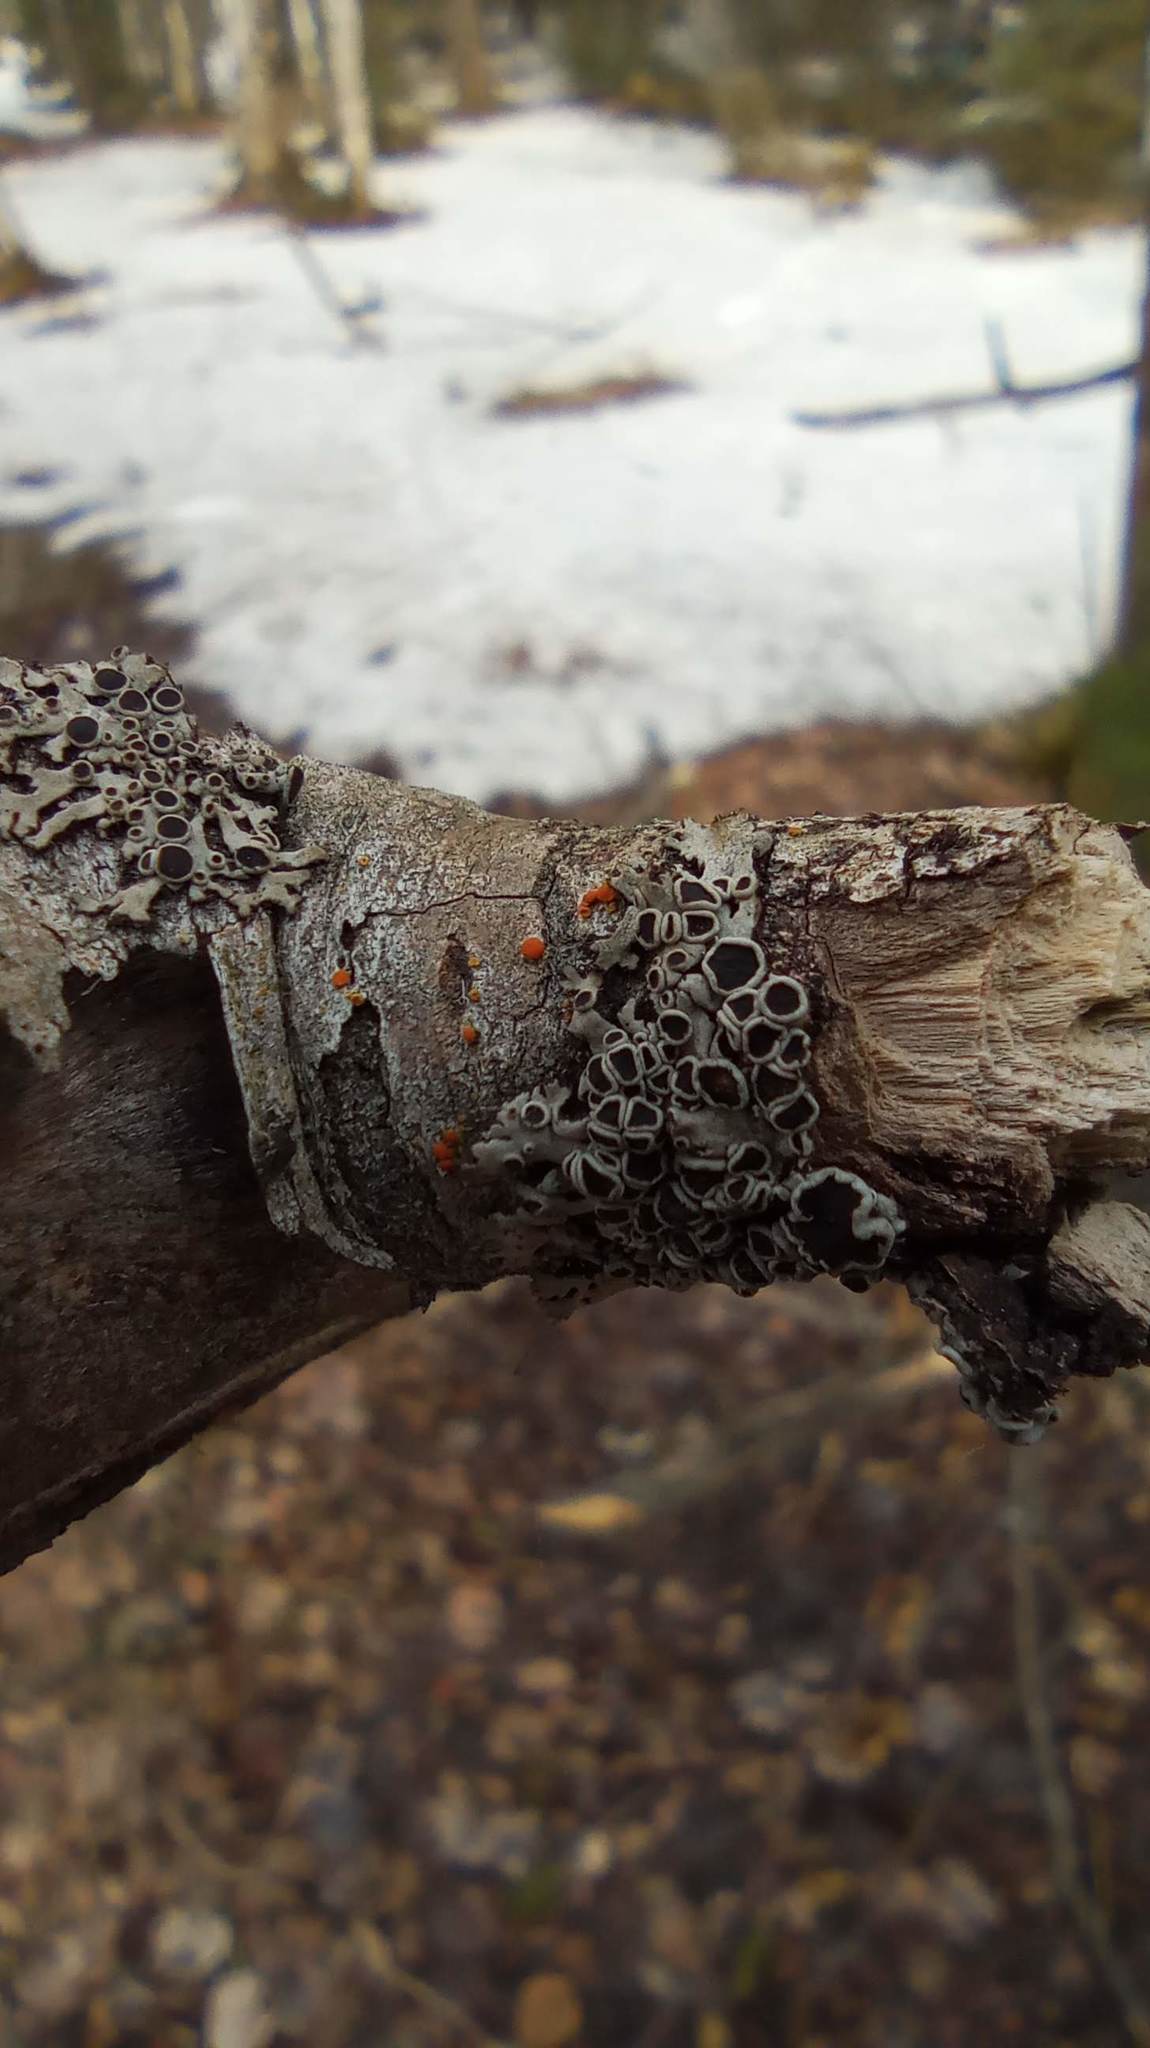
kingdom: Fungi
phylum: Ascomycota
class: Lecanoromycetes
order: Caliciales
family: Physciaceae
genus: Physcia
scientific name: Physcia aipolia
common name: Hoary rosette lichen
